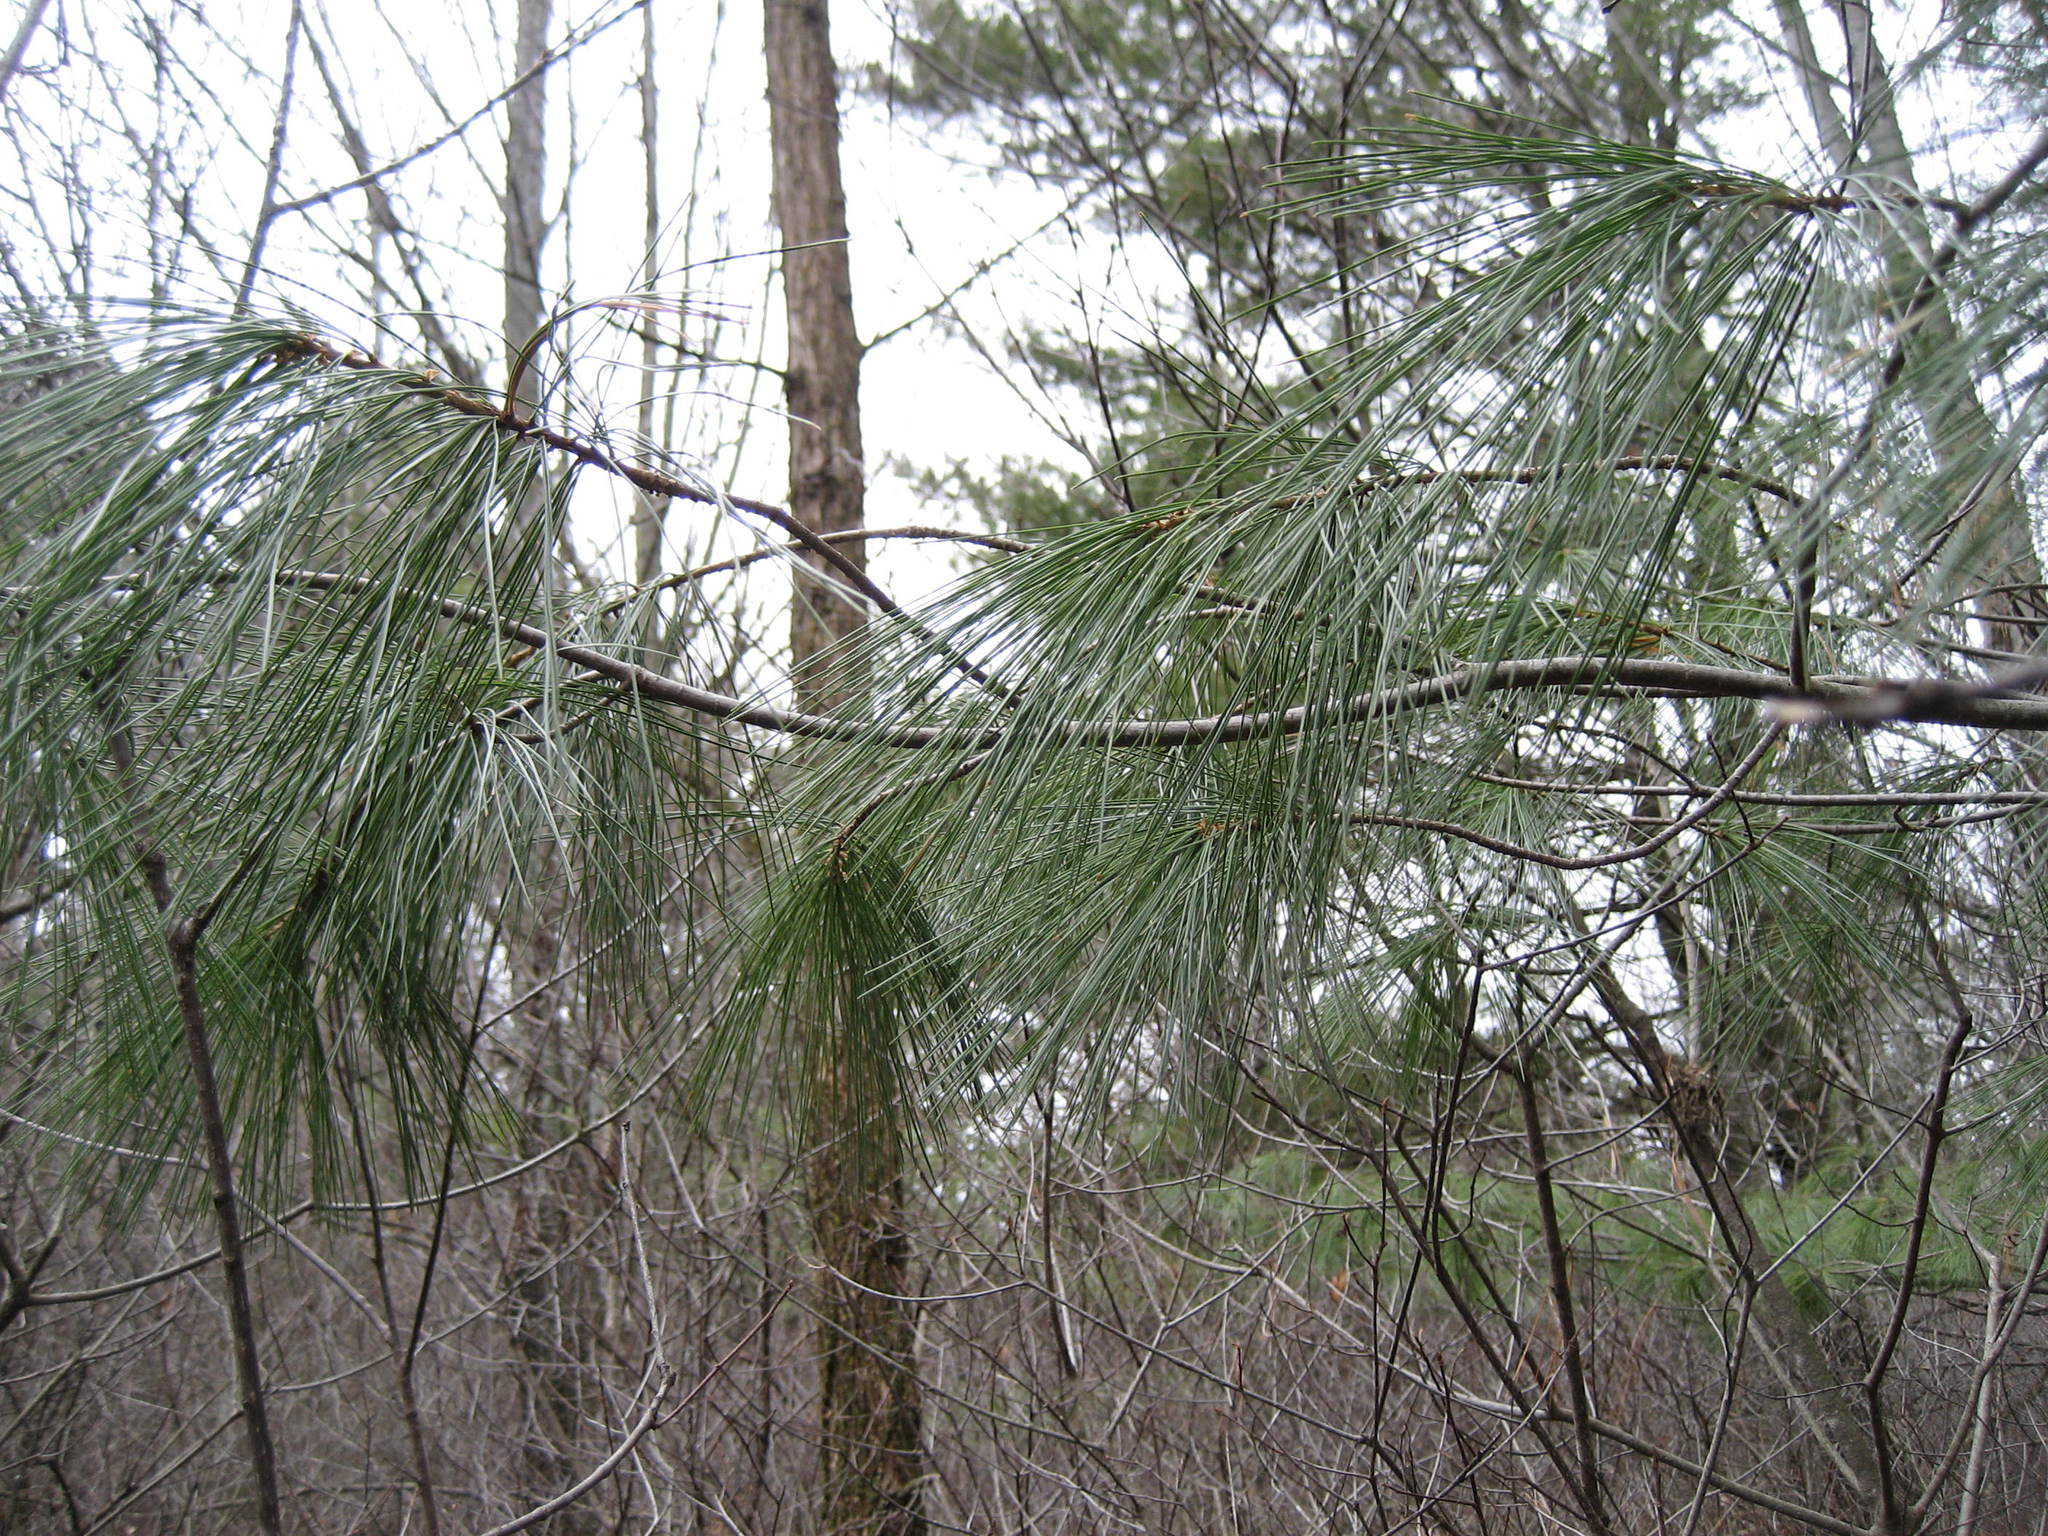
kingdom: Plantae
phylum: Tracheophyta
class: Pinopsida
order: Pinales
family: Pinaceae
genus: Pinus
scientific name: Pinus strobus
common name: Weymouth pine
